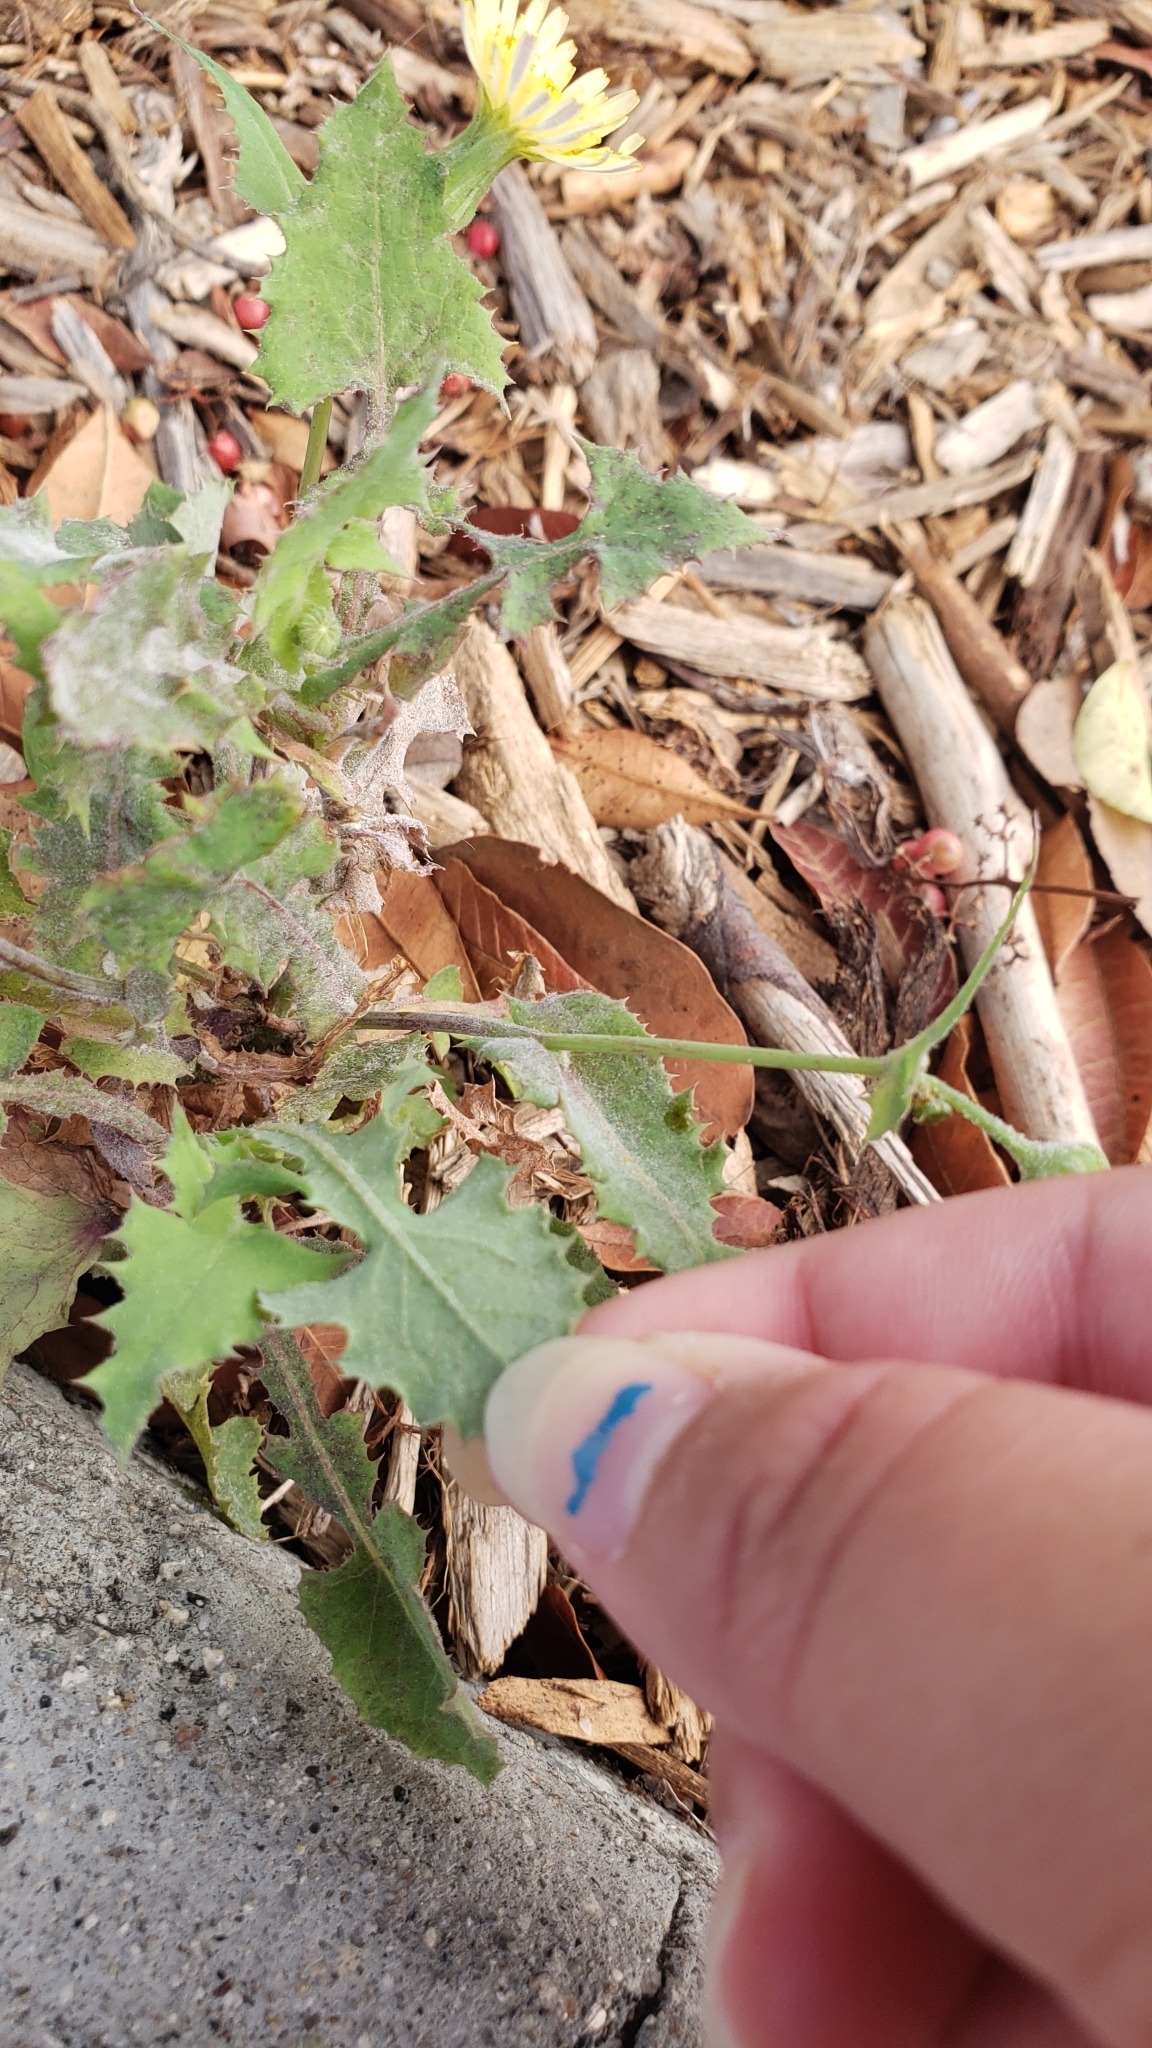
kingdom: Plantae
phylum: Tracheophyta
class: Magnoliopsida
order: Asterales
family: Asteraceae
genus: Sonchus
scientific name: Sonchus oleraceus
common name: Common sowthistle
